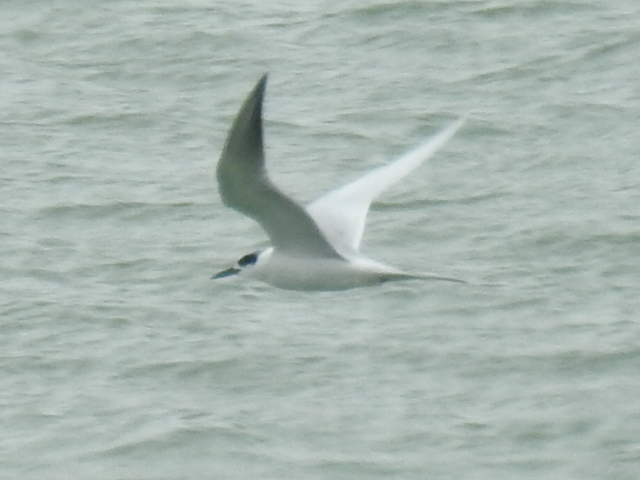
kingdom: Animalia
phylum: Chordata
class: Aves
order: Charadriiformes
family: Laridae
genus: Sterna
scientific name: Sterna forsteri
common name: Forster's tern
